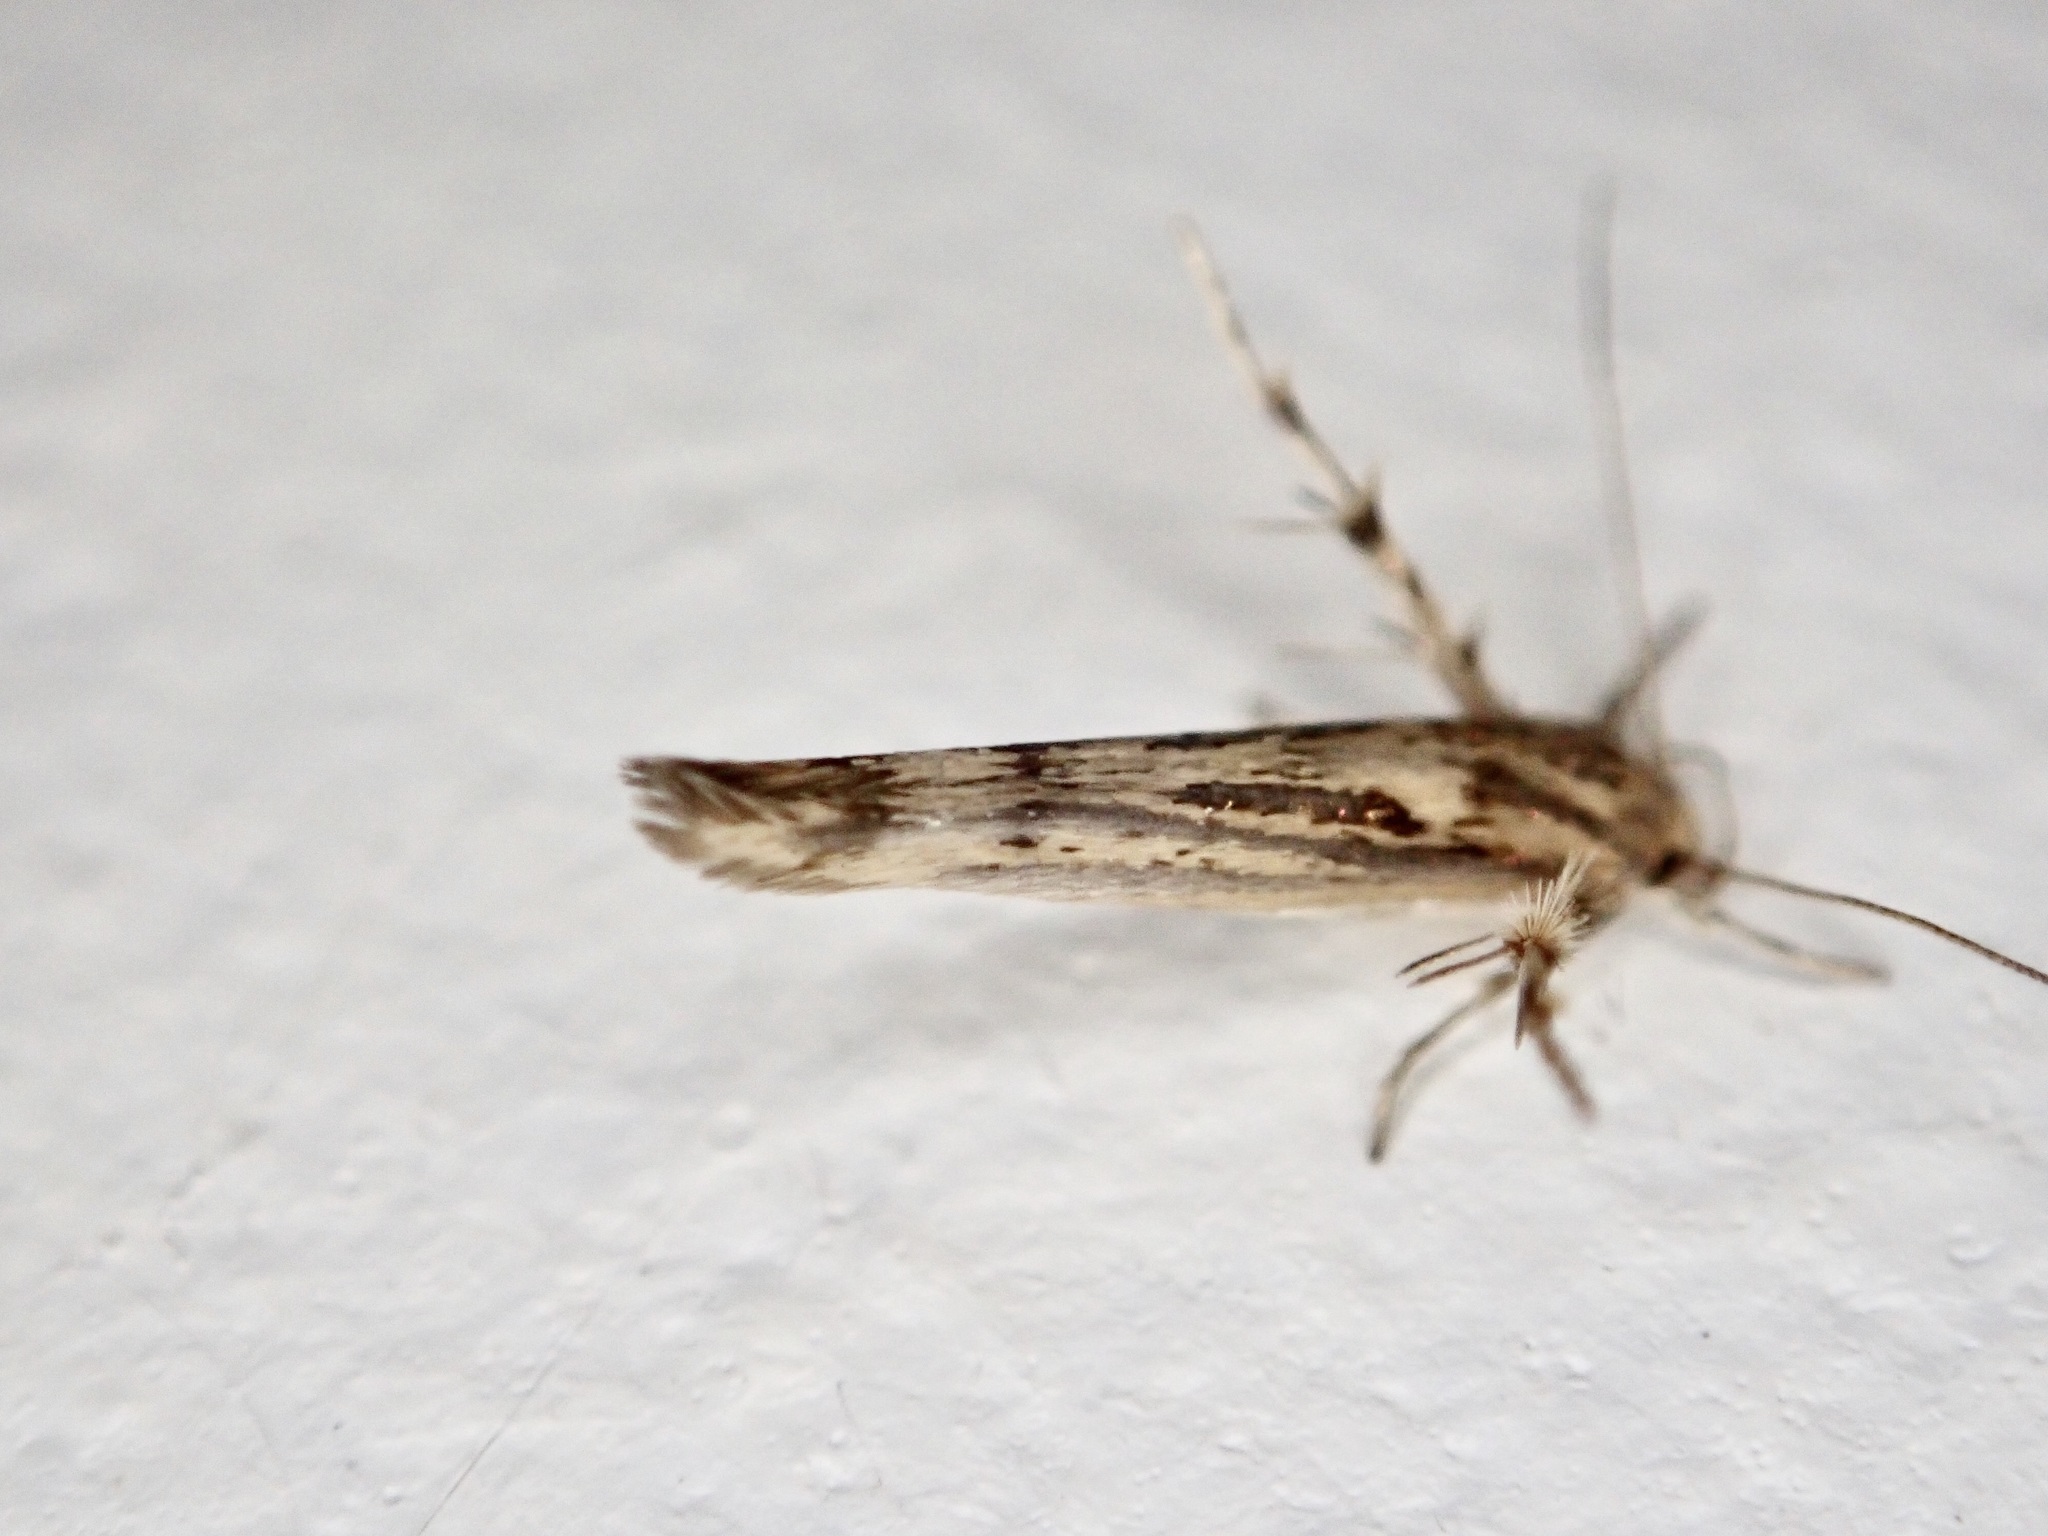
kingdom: Animalia
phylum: Arthropoda
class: Insecta
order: Lepidoptera
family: Stathmopodidae
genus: Stathmopoda
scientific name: Stathmopoda plumbiflua
